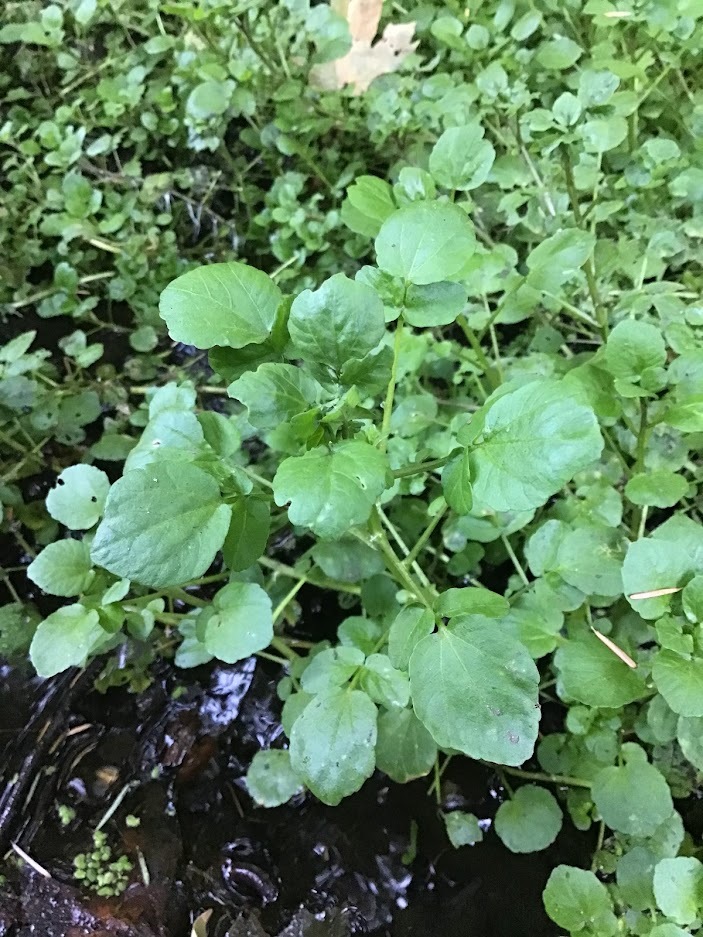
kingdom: Plantae
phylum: Tracheophyta
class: Magnoliopsida
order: Brassicales
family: Brassicaceae
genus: Nasturtium
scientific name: Nasturtium officinale
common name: Watercress
